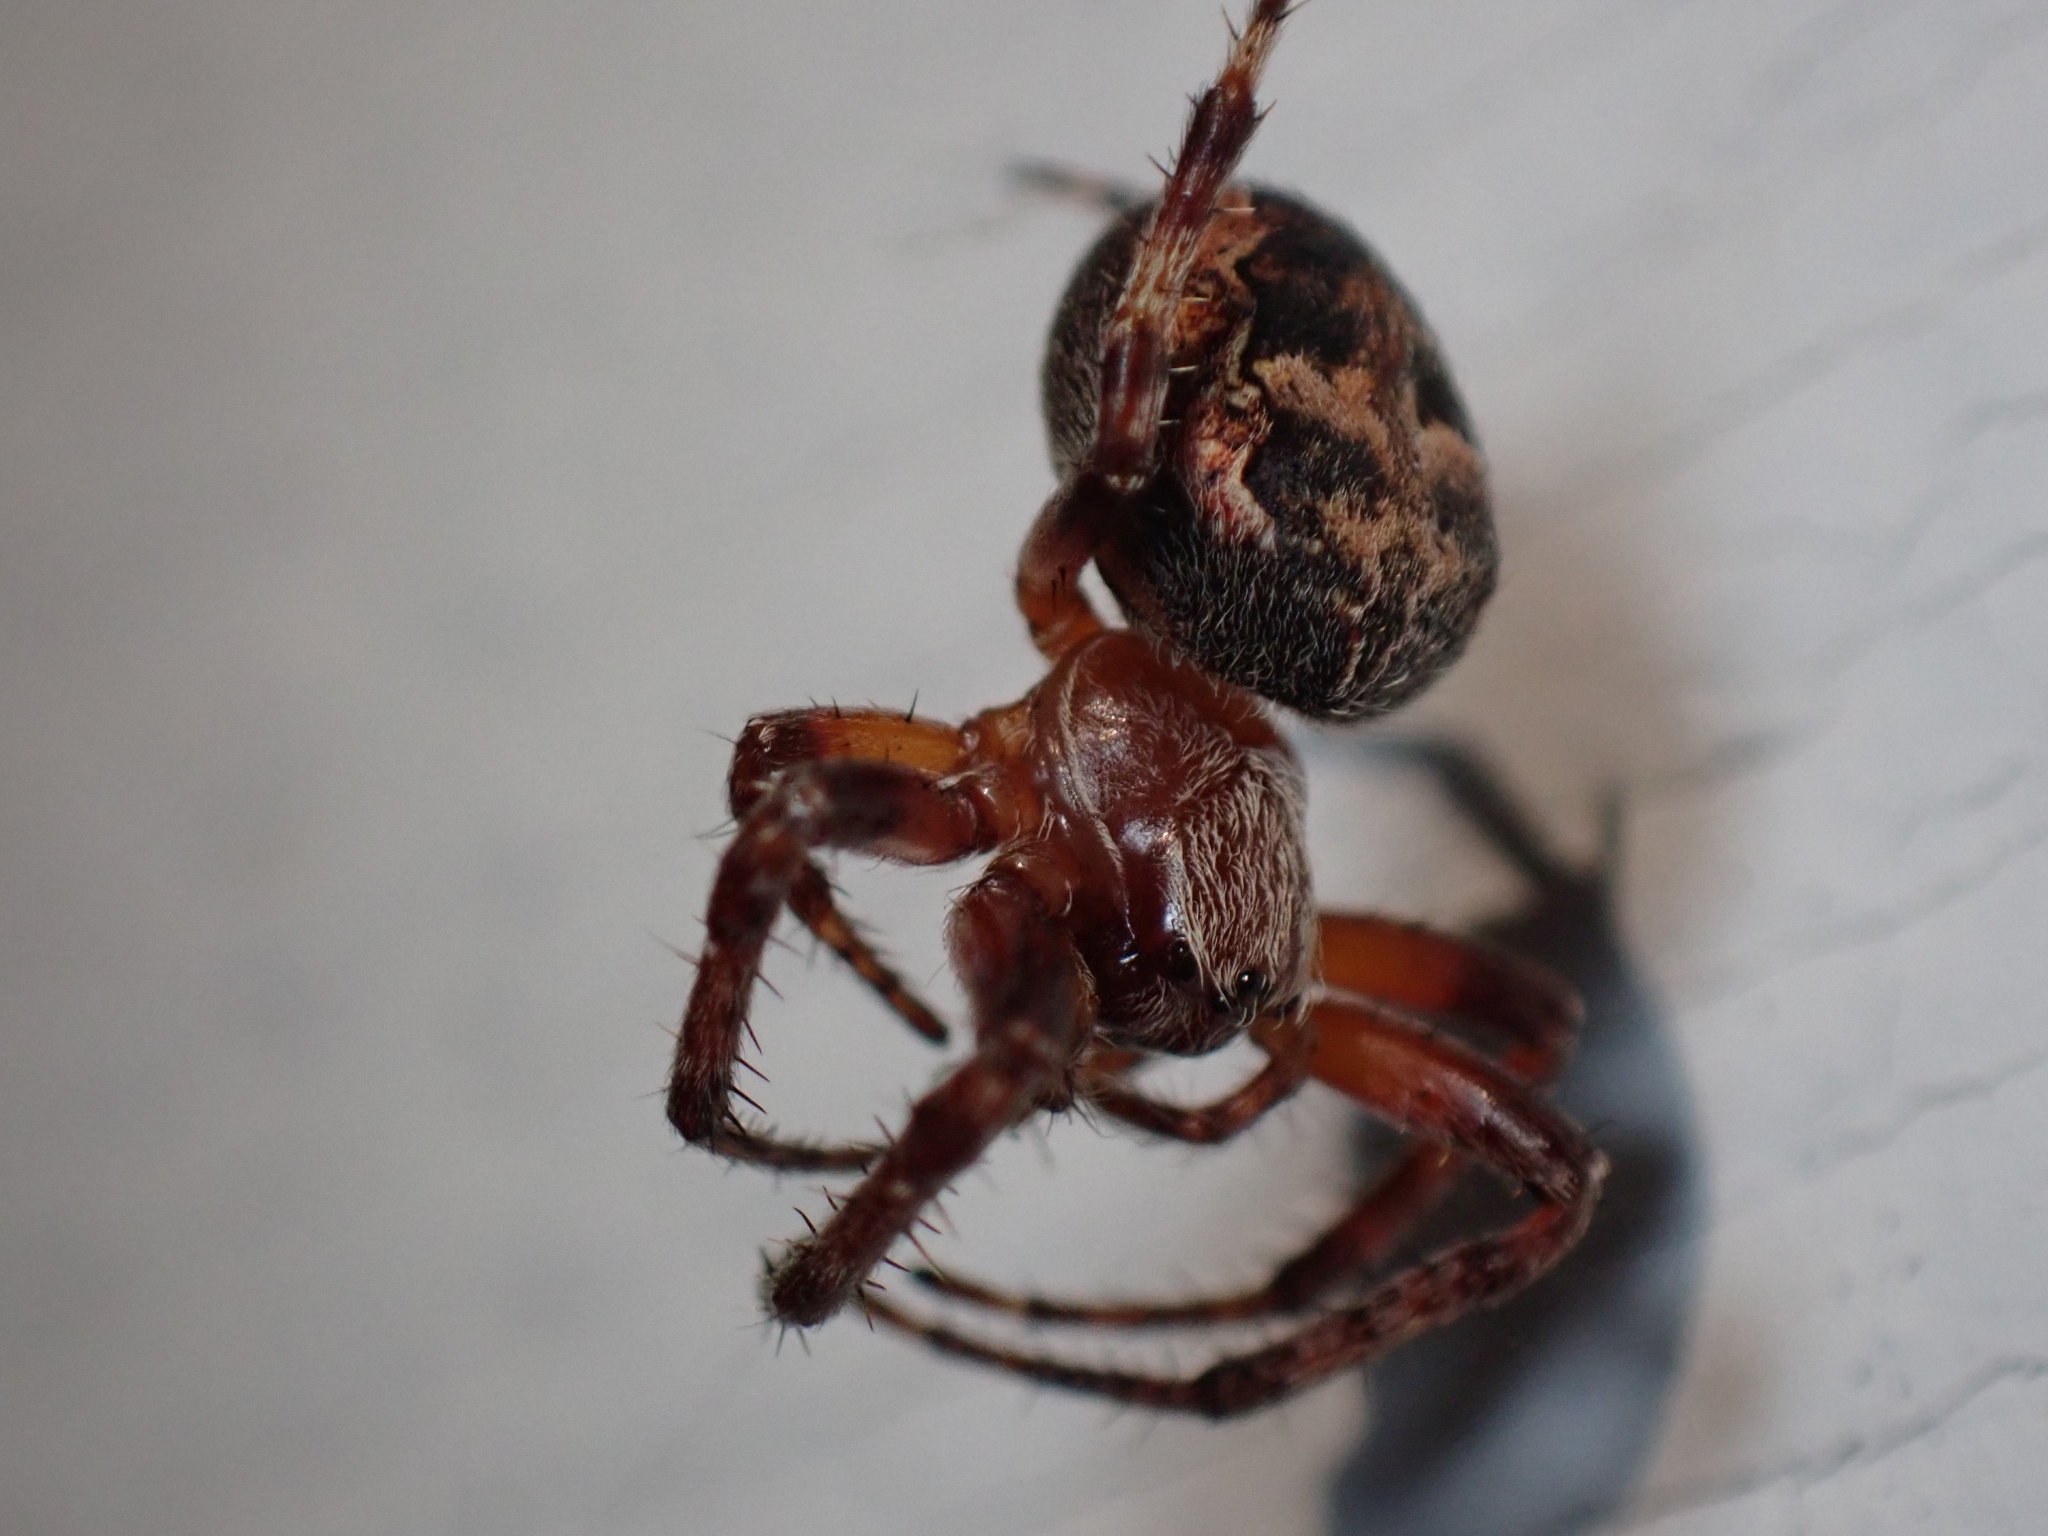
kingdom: Animalia
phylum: Arthropoda
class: Arachnida
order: Araneae
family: Araneidae
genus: Larinioides
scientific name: Larinioides patagiatus
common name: Ornamental orbweaver
